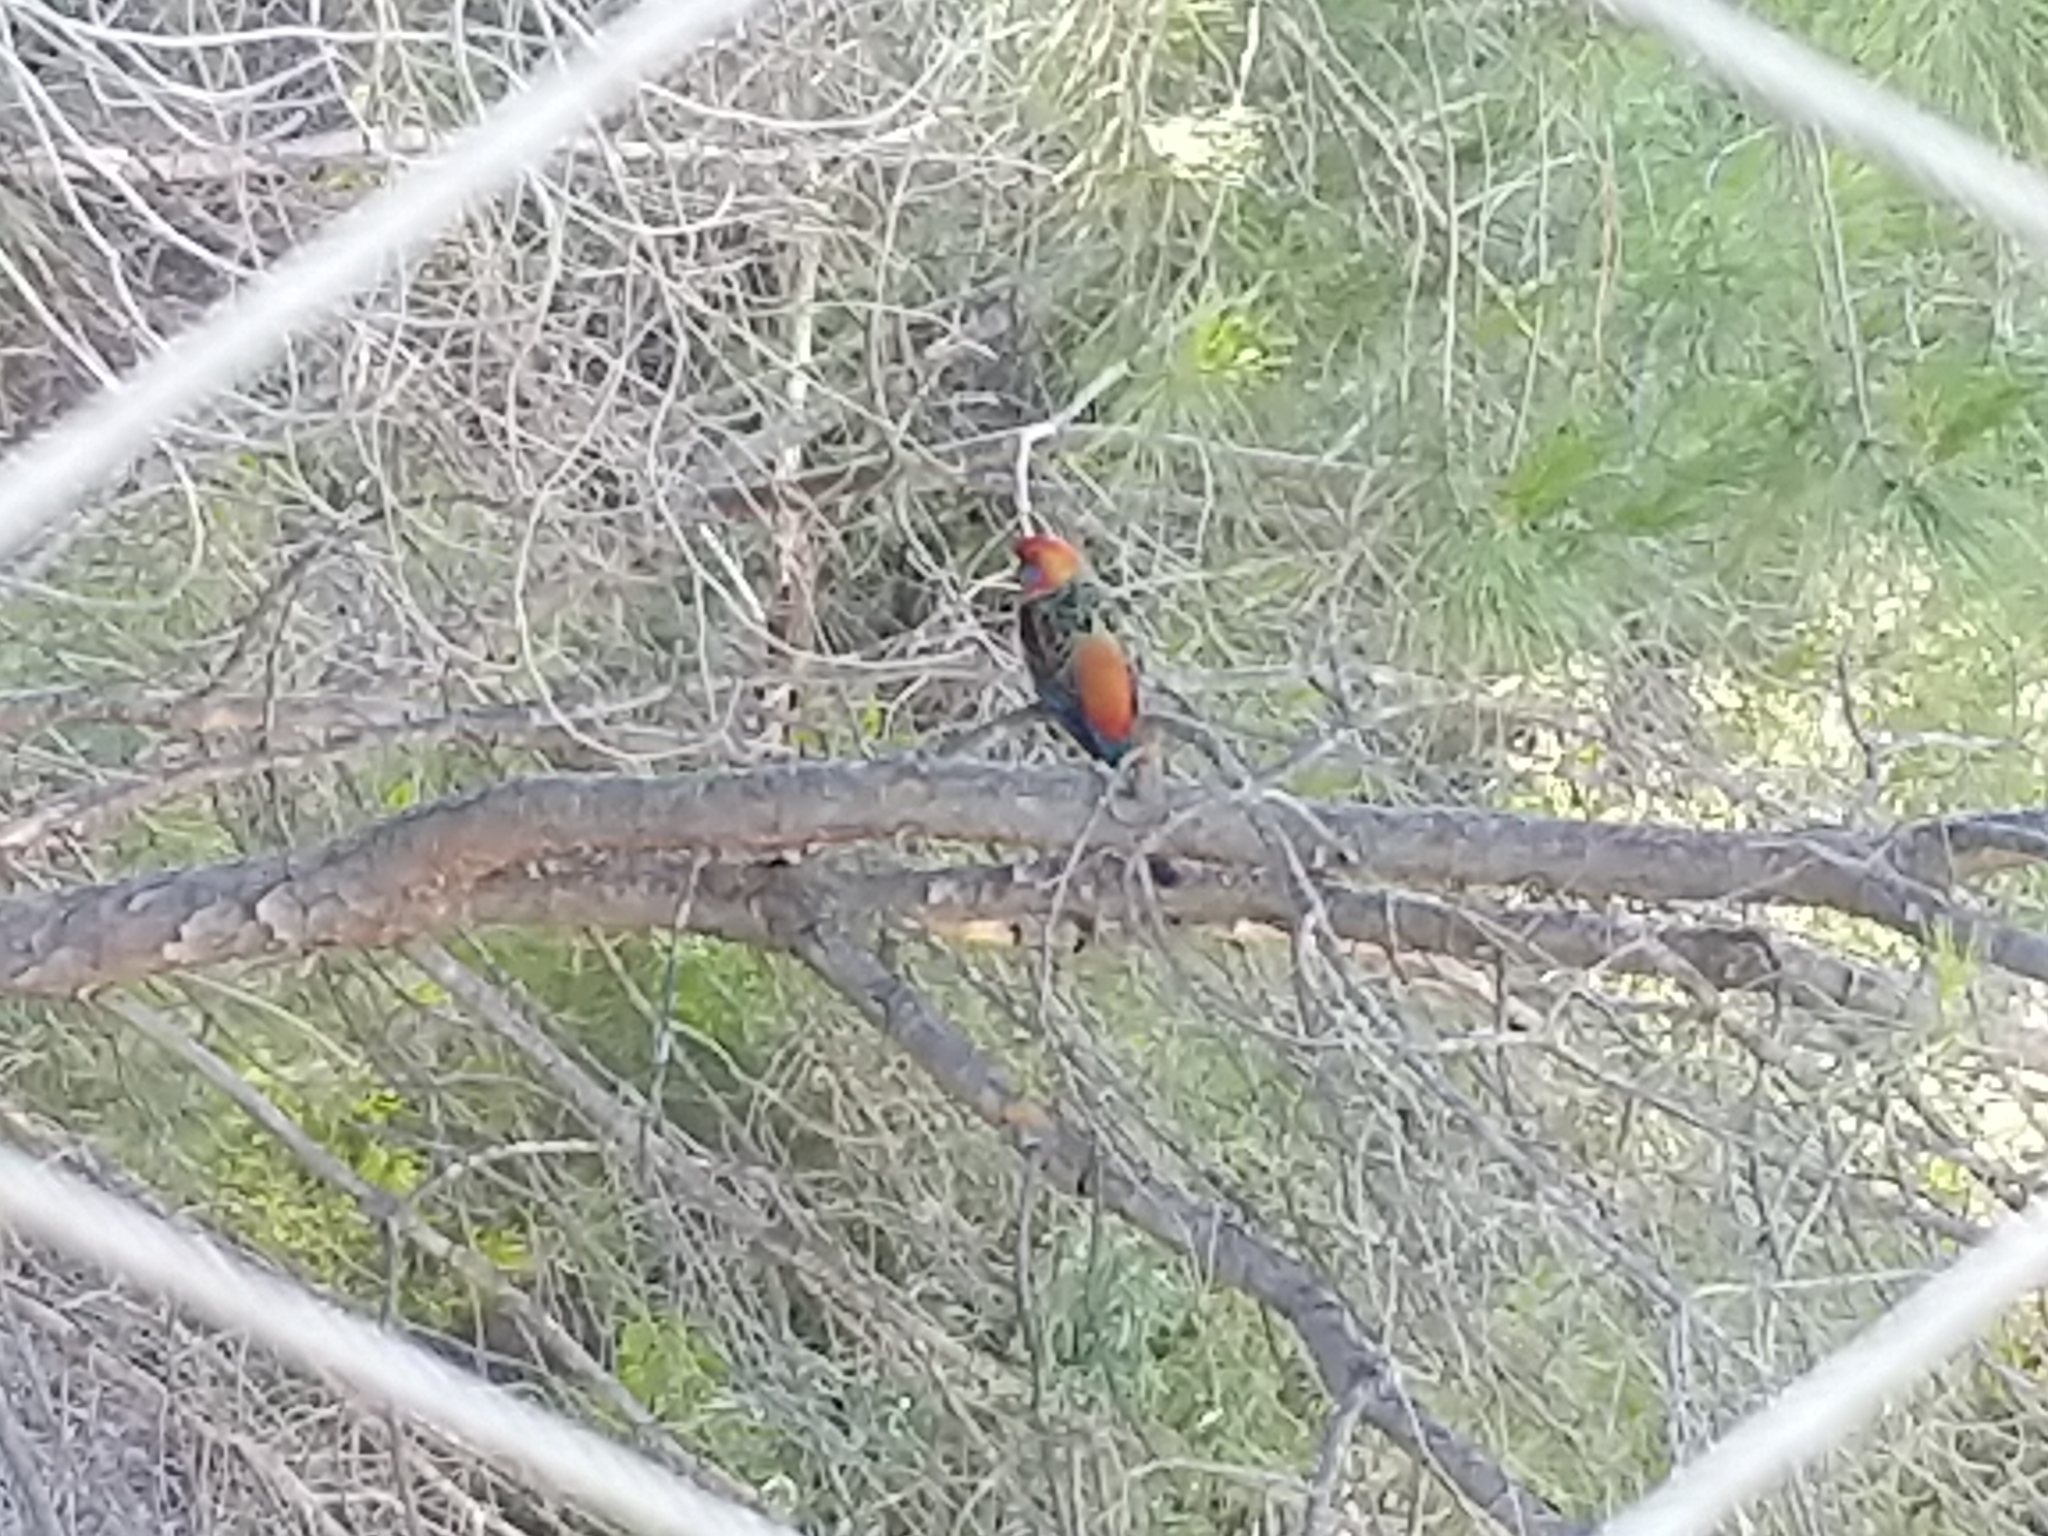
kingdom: Animalia
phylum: Chordata
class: Aves
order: Psittaciformes
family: Psittacidae
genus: Platycercus
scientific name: Platycercus elegans
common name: Crimson rosella
